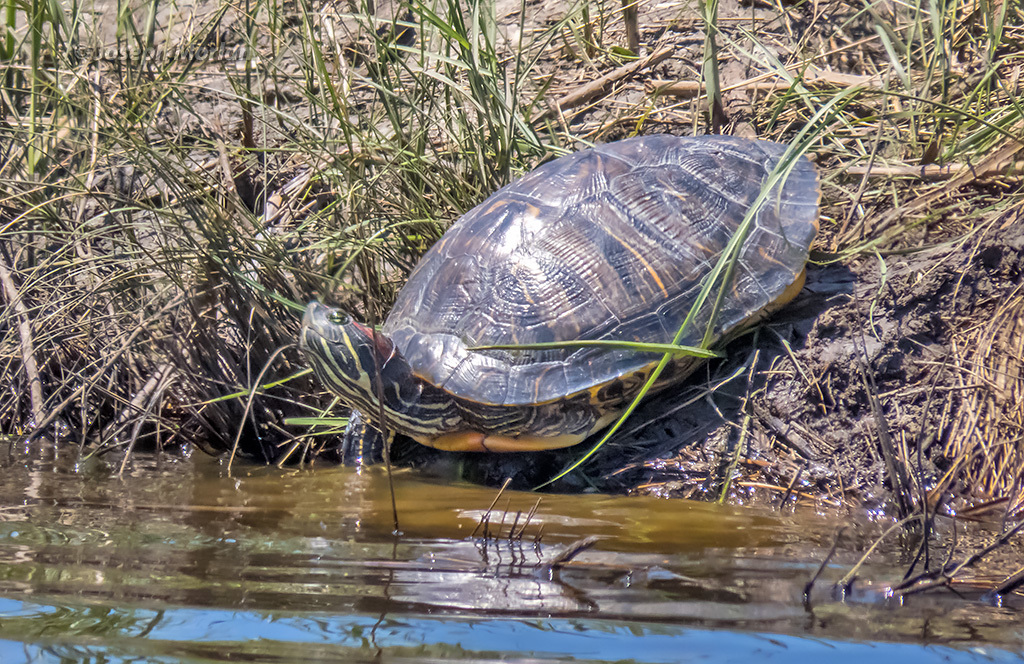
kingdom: Animalia
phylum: Chordata
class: Testudines
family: Emydidae
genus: Trachemys
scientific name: Trachemys scripta
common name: Slider
